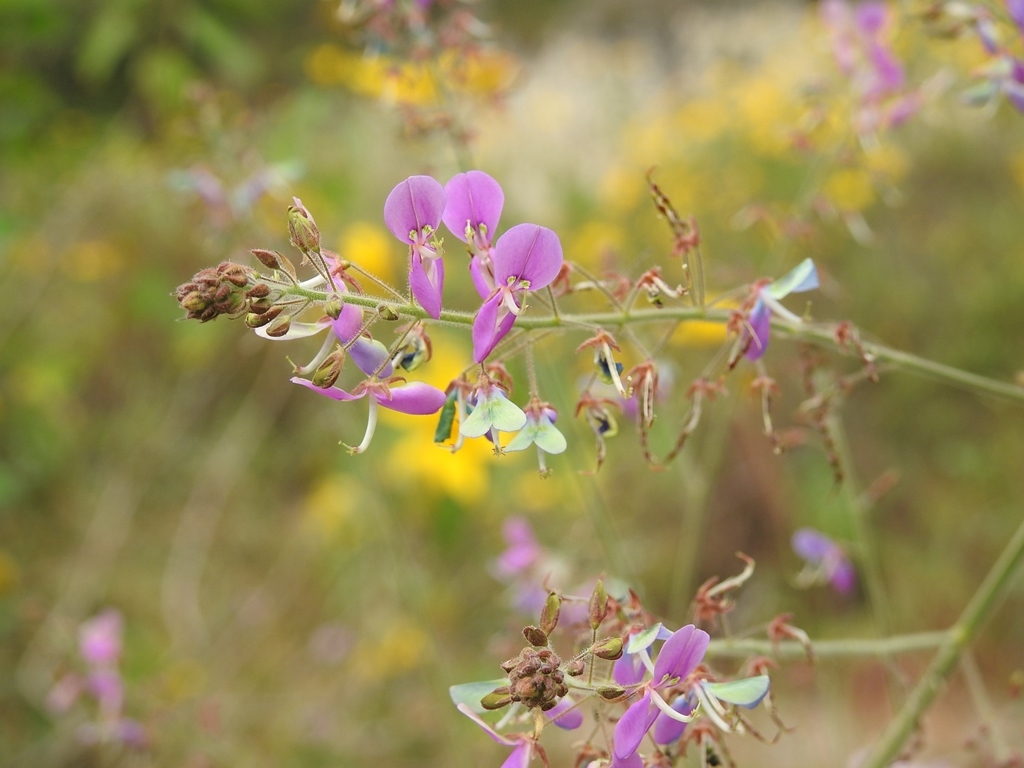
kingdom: Plantae
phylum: Tracheophyta
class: Magnoliopsida
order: Fabales
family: Fabaceae
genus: Grona
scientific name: Grona adscendens
